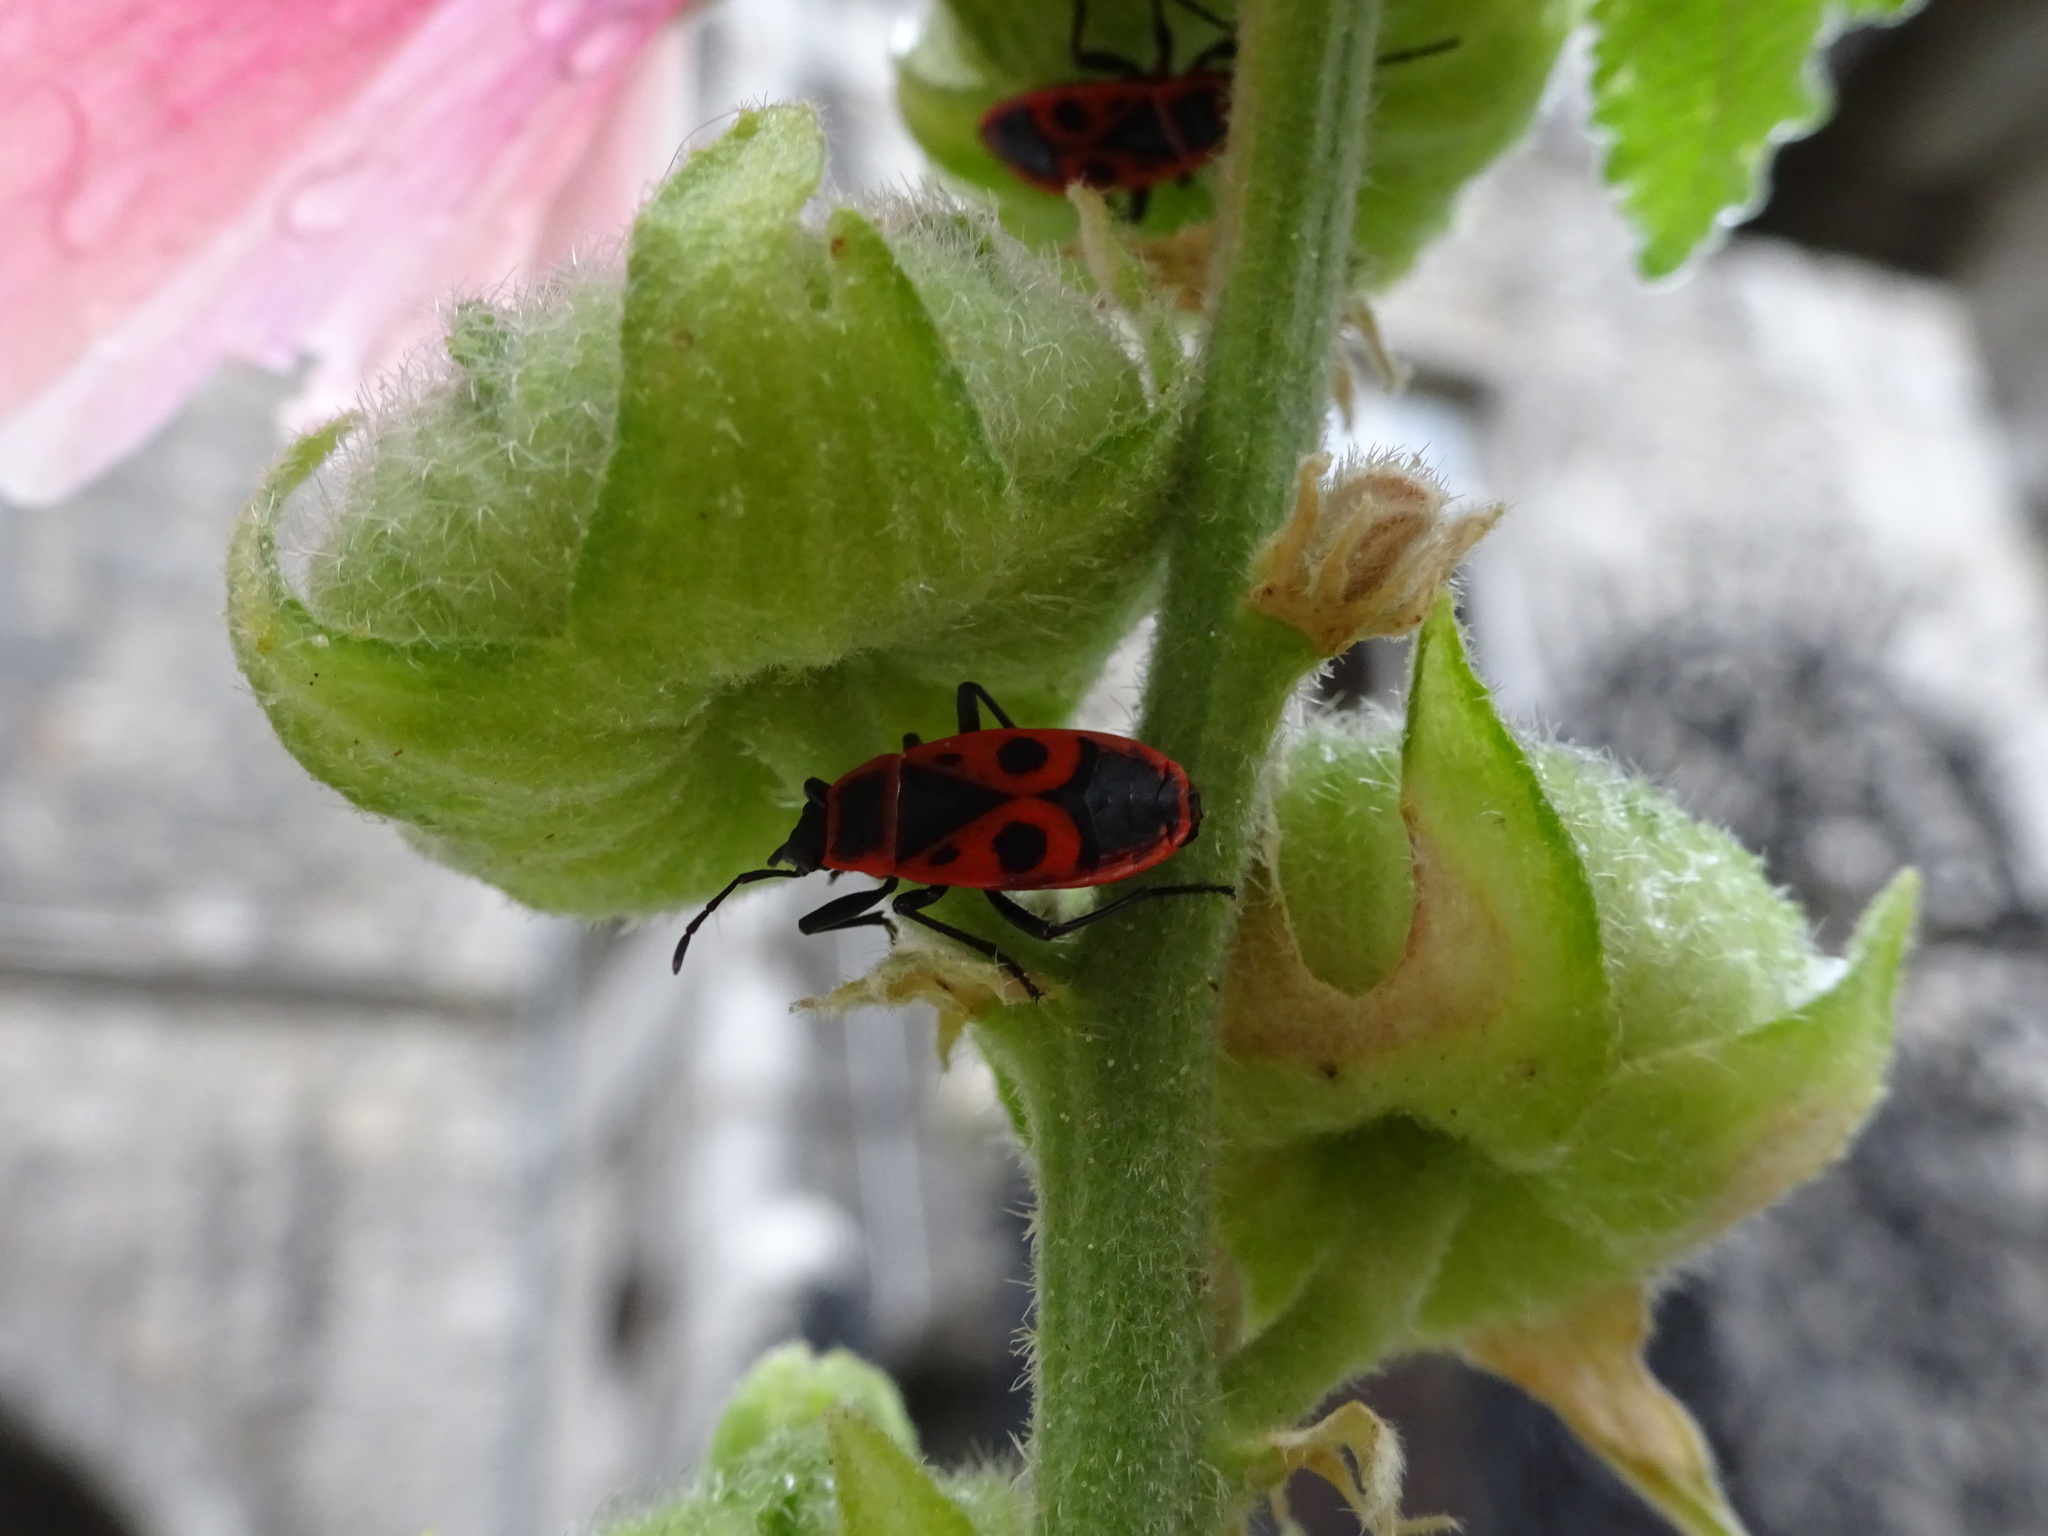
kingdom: Animalia
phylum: Arthropoda
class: Insecta
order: Hemiptera
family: Pyrrhocoridae
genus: Pyrrhocoris
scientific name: Pyrrhocoris apterus
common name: Firebug
